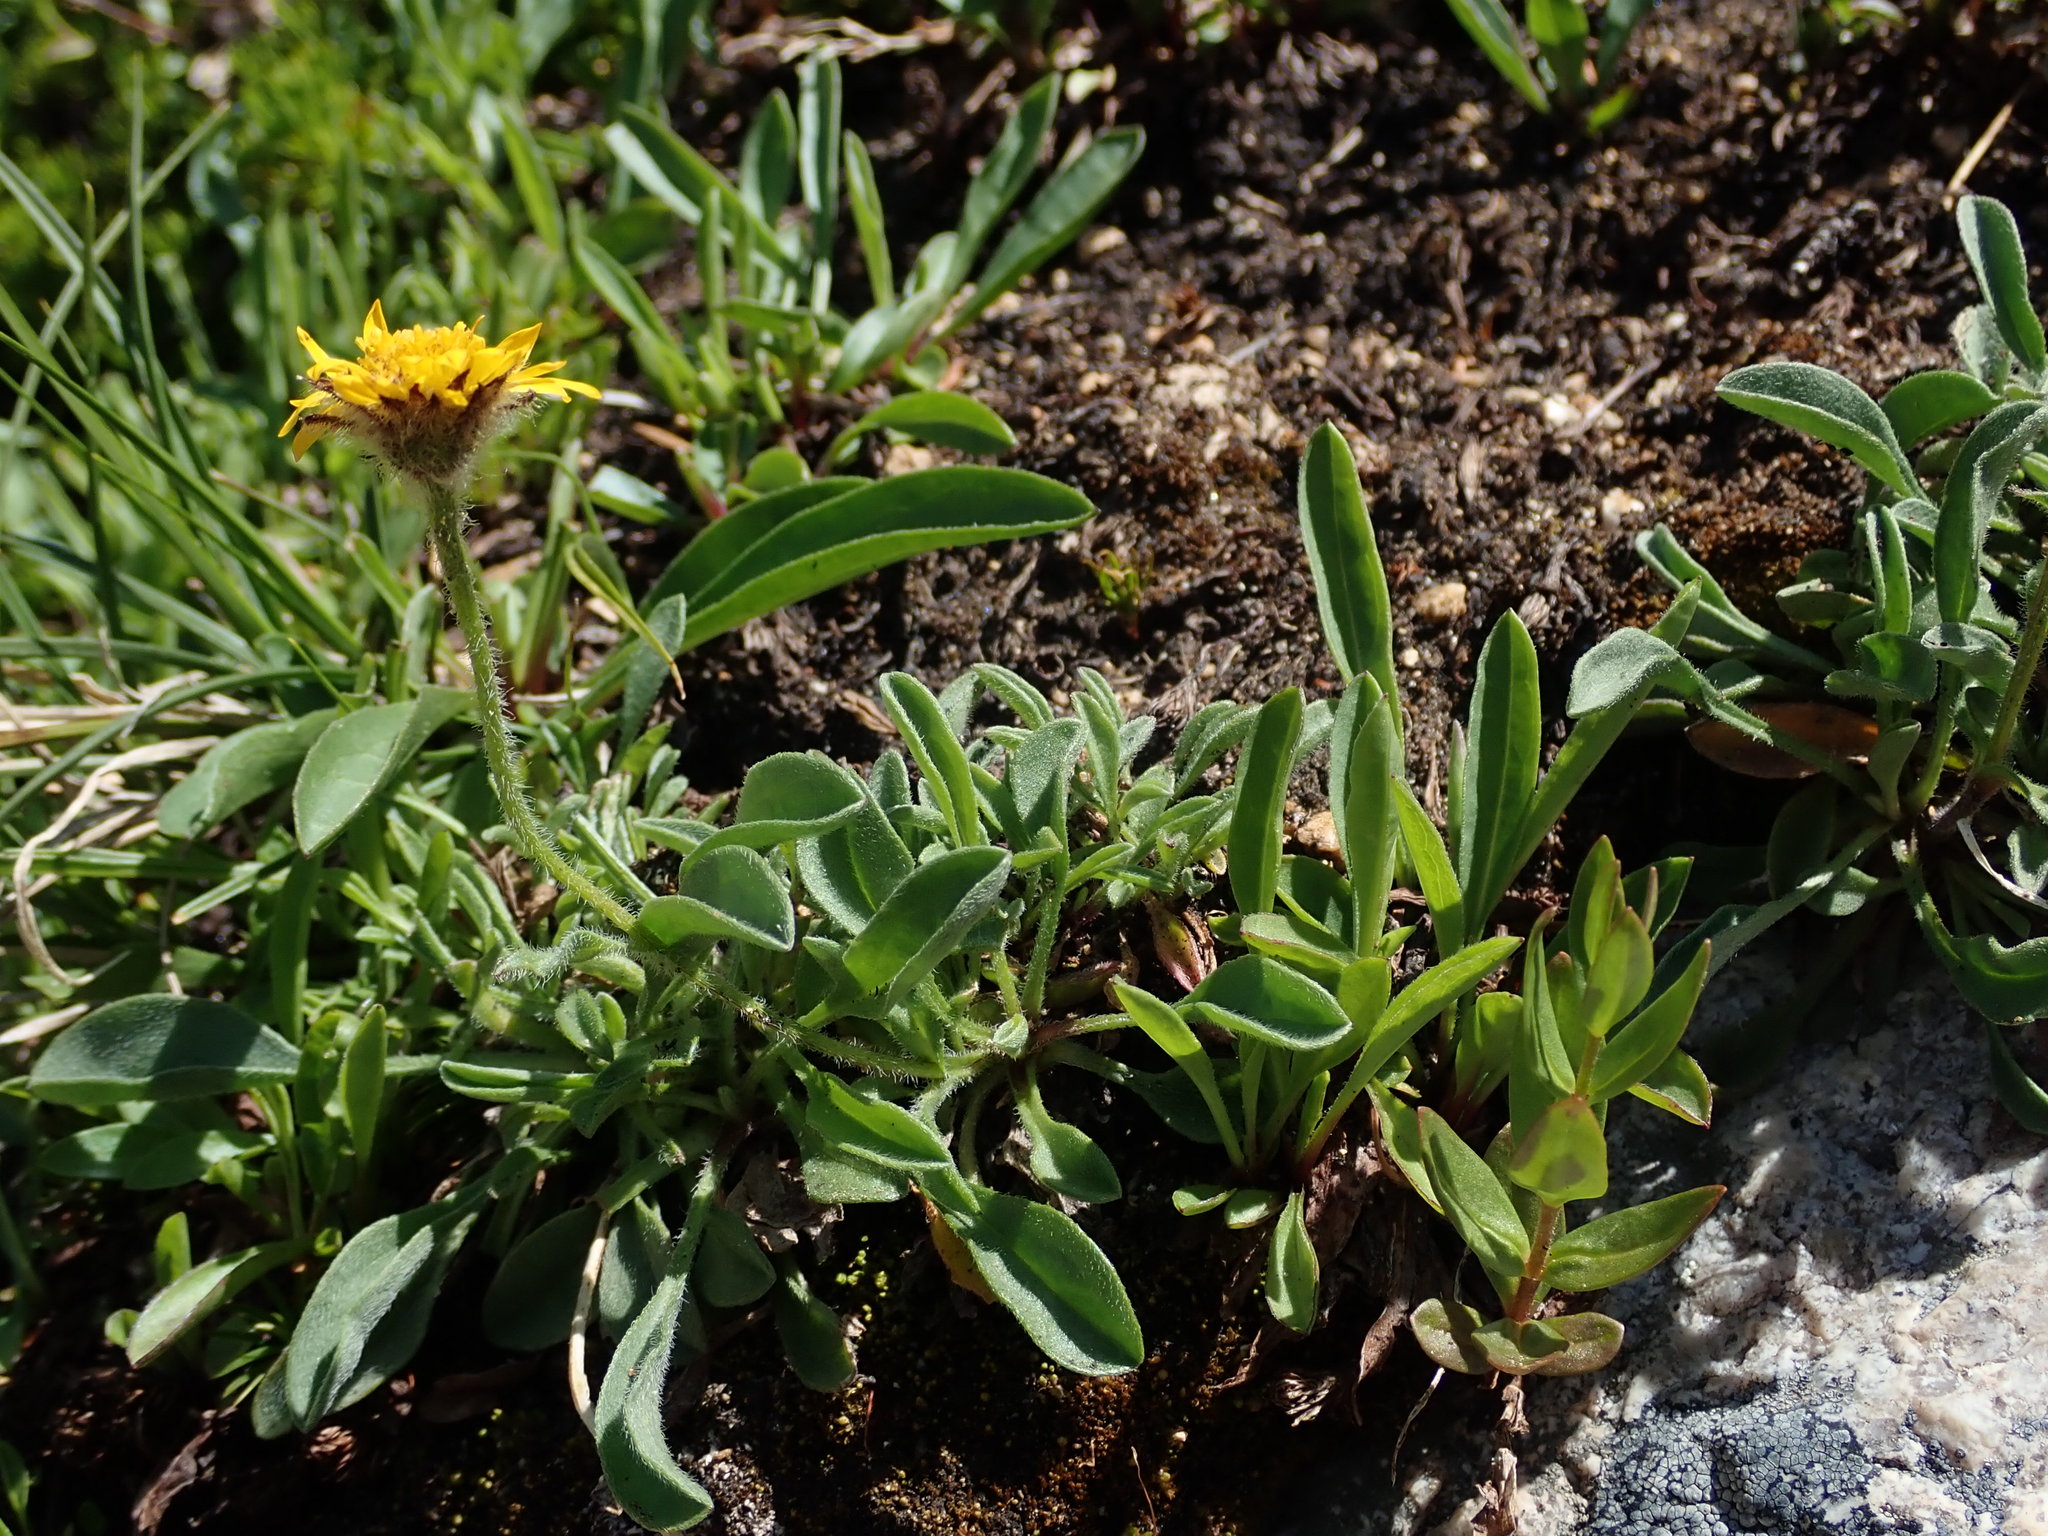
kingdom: Plantae
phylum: Tracheophyta
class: Magnoliopsida
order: Asterales
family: Asteraceae
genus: Erigeron
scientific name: Erigeron aureus
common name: Alpine yellow fleabane
